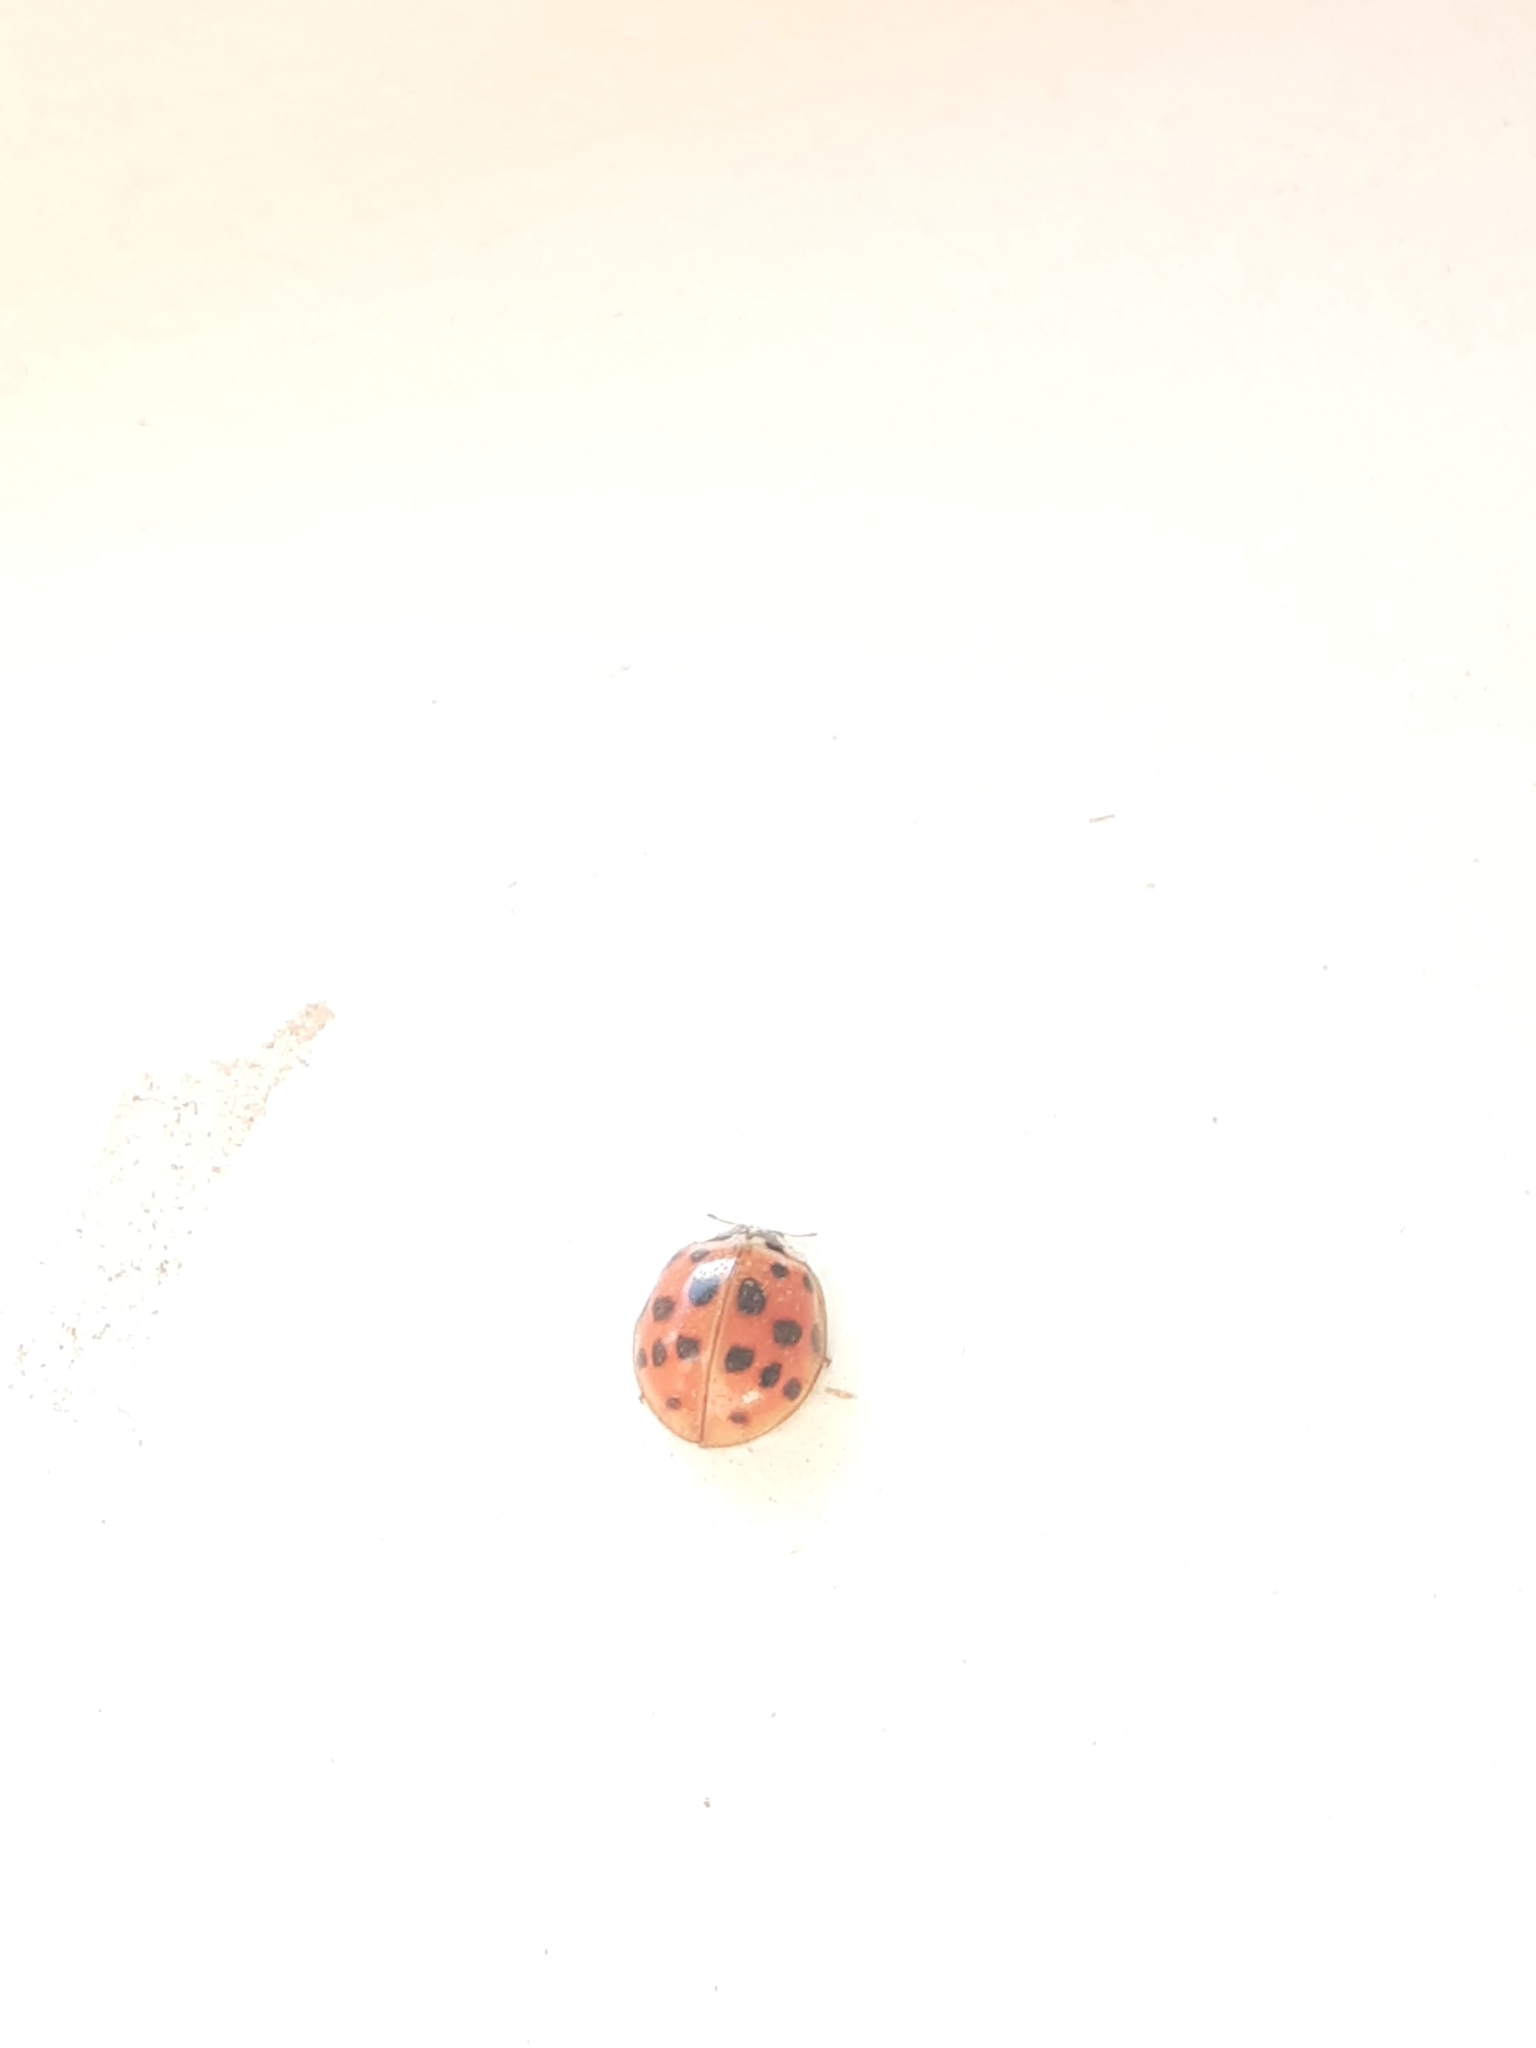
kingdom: Animalia
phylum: Arthropoda
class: Insecta
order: Coleoptera
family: Coccinellidae
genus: Harmonia
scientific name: Harmonia axyridis
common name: Harlequin ladybird
